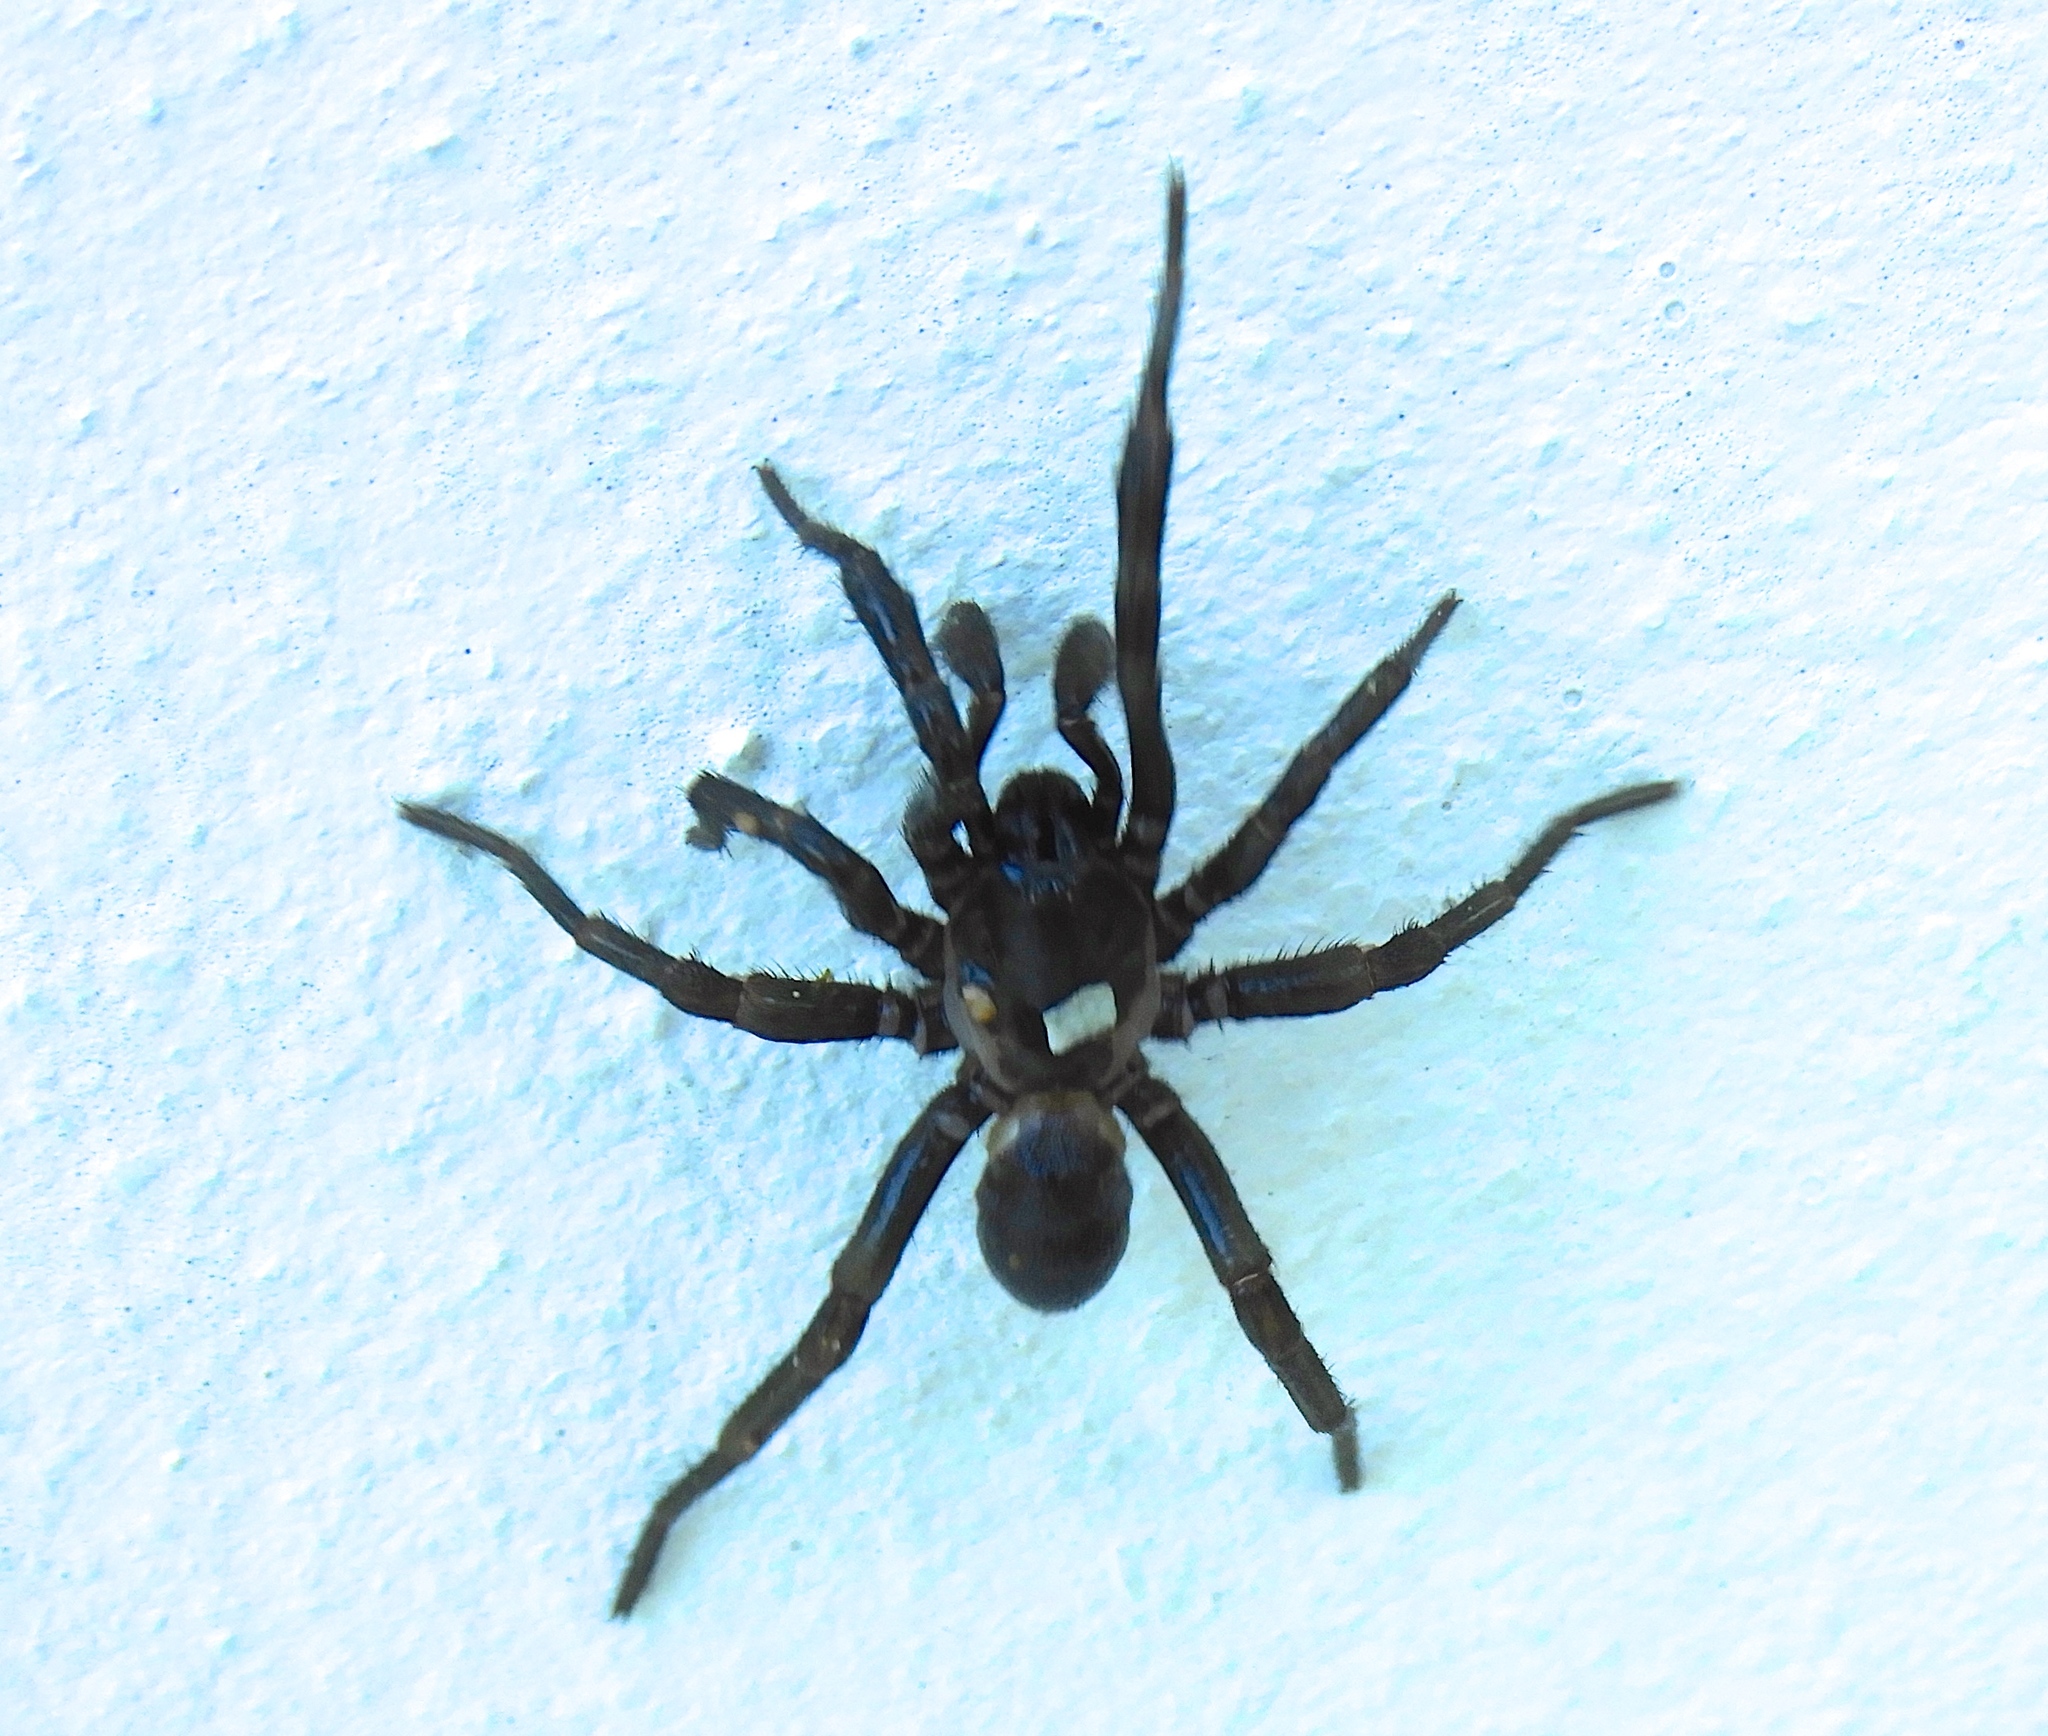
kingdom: Animalia
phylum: Arthropoda
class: Arachnida
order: Araneae
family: Euctenizidae
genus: Eucteniza
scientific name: Eucteniza
